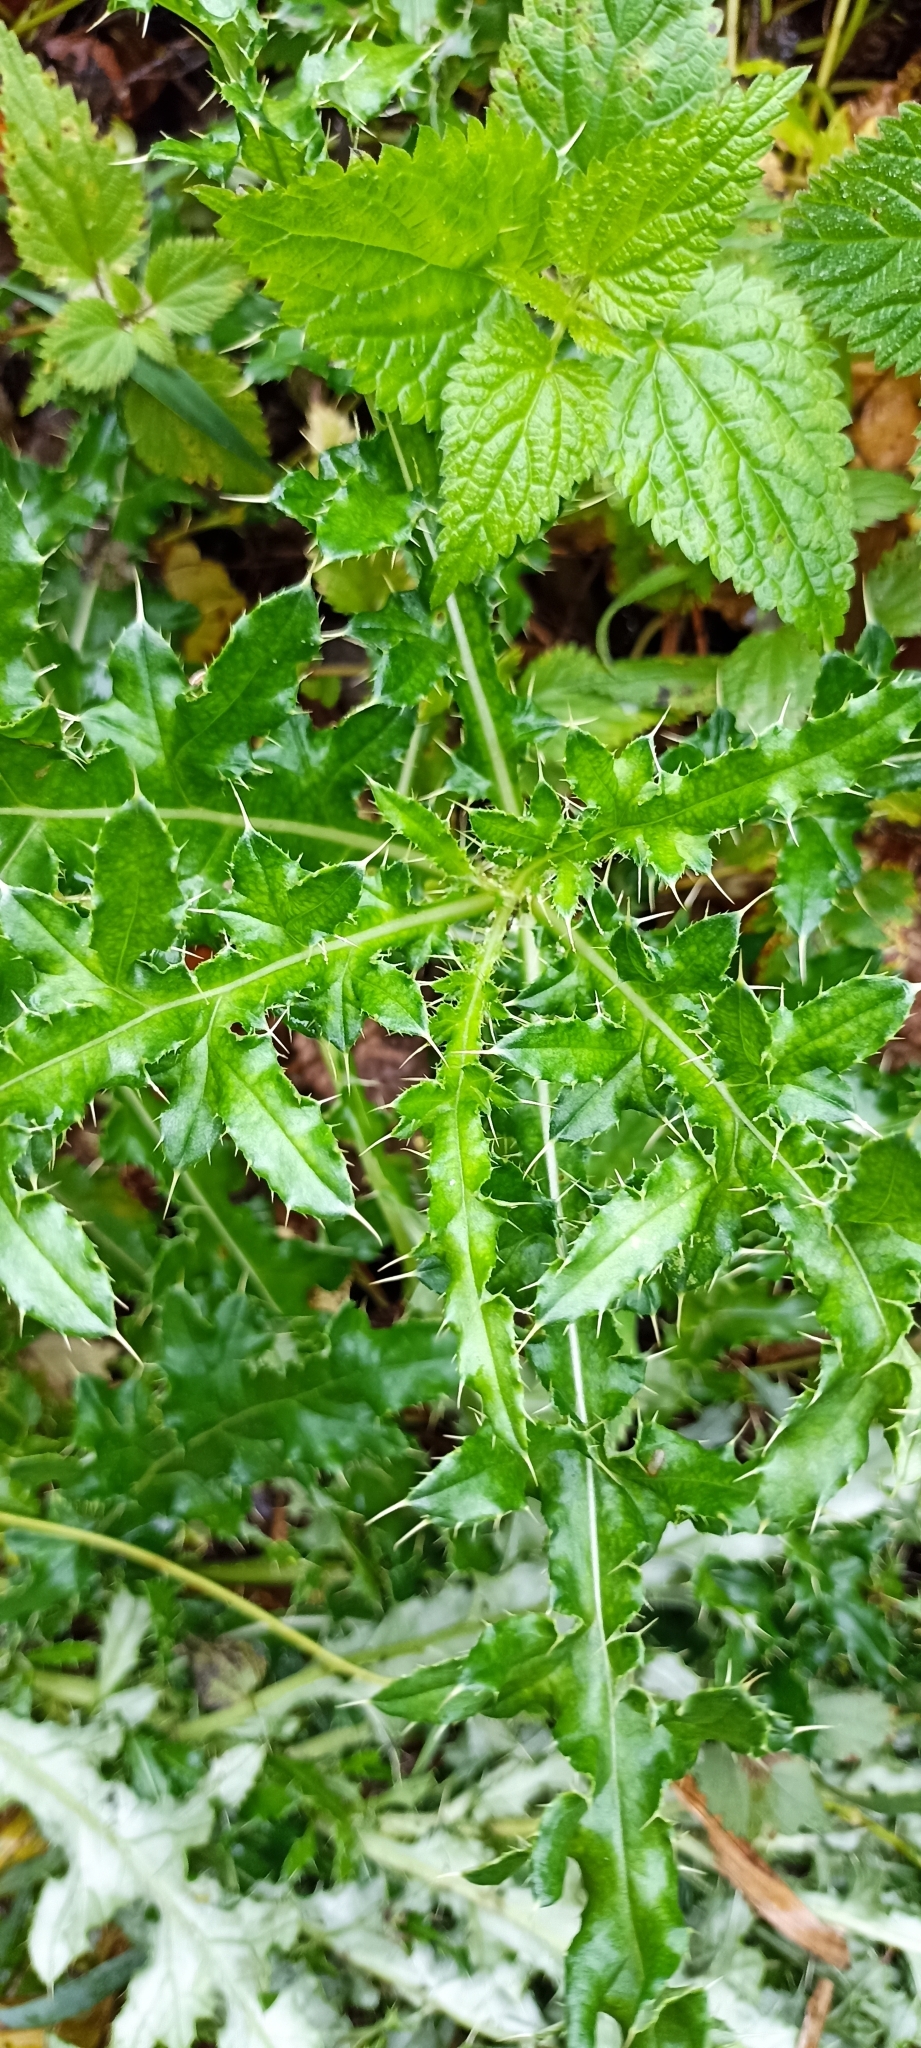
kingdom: Plantae
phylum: Tracheophyta
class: Magnoliopsida
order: Asterales
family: Asteraceae
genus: Cirsium
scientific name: Cirsium arvense
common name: Creeping thistle
